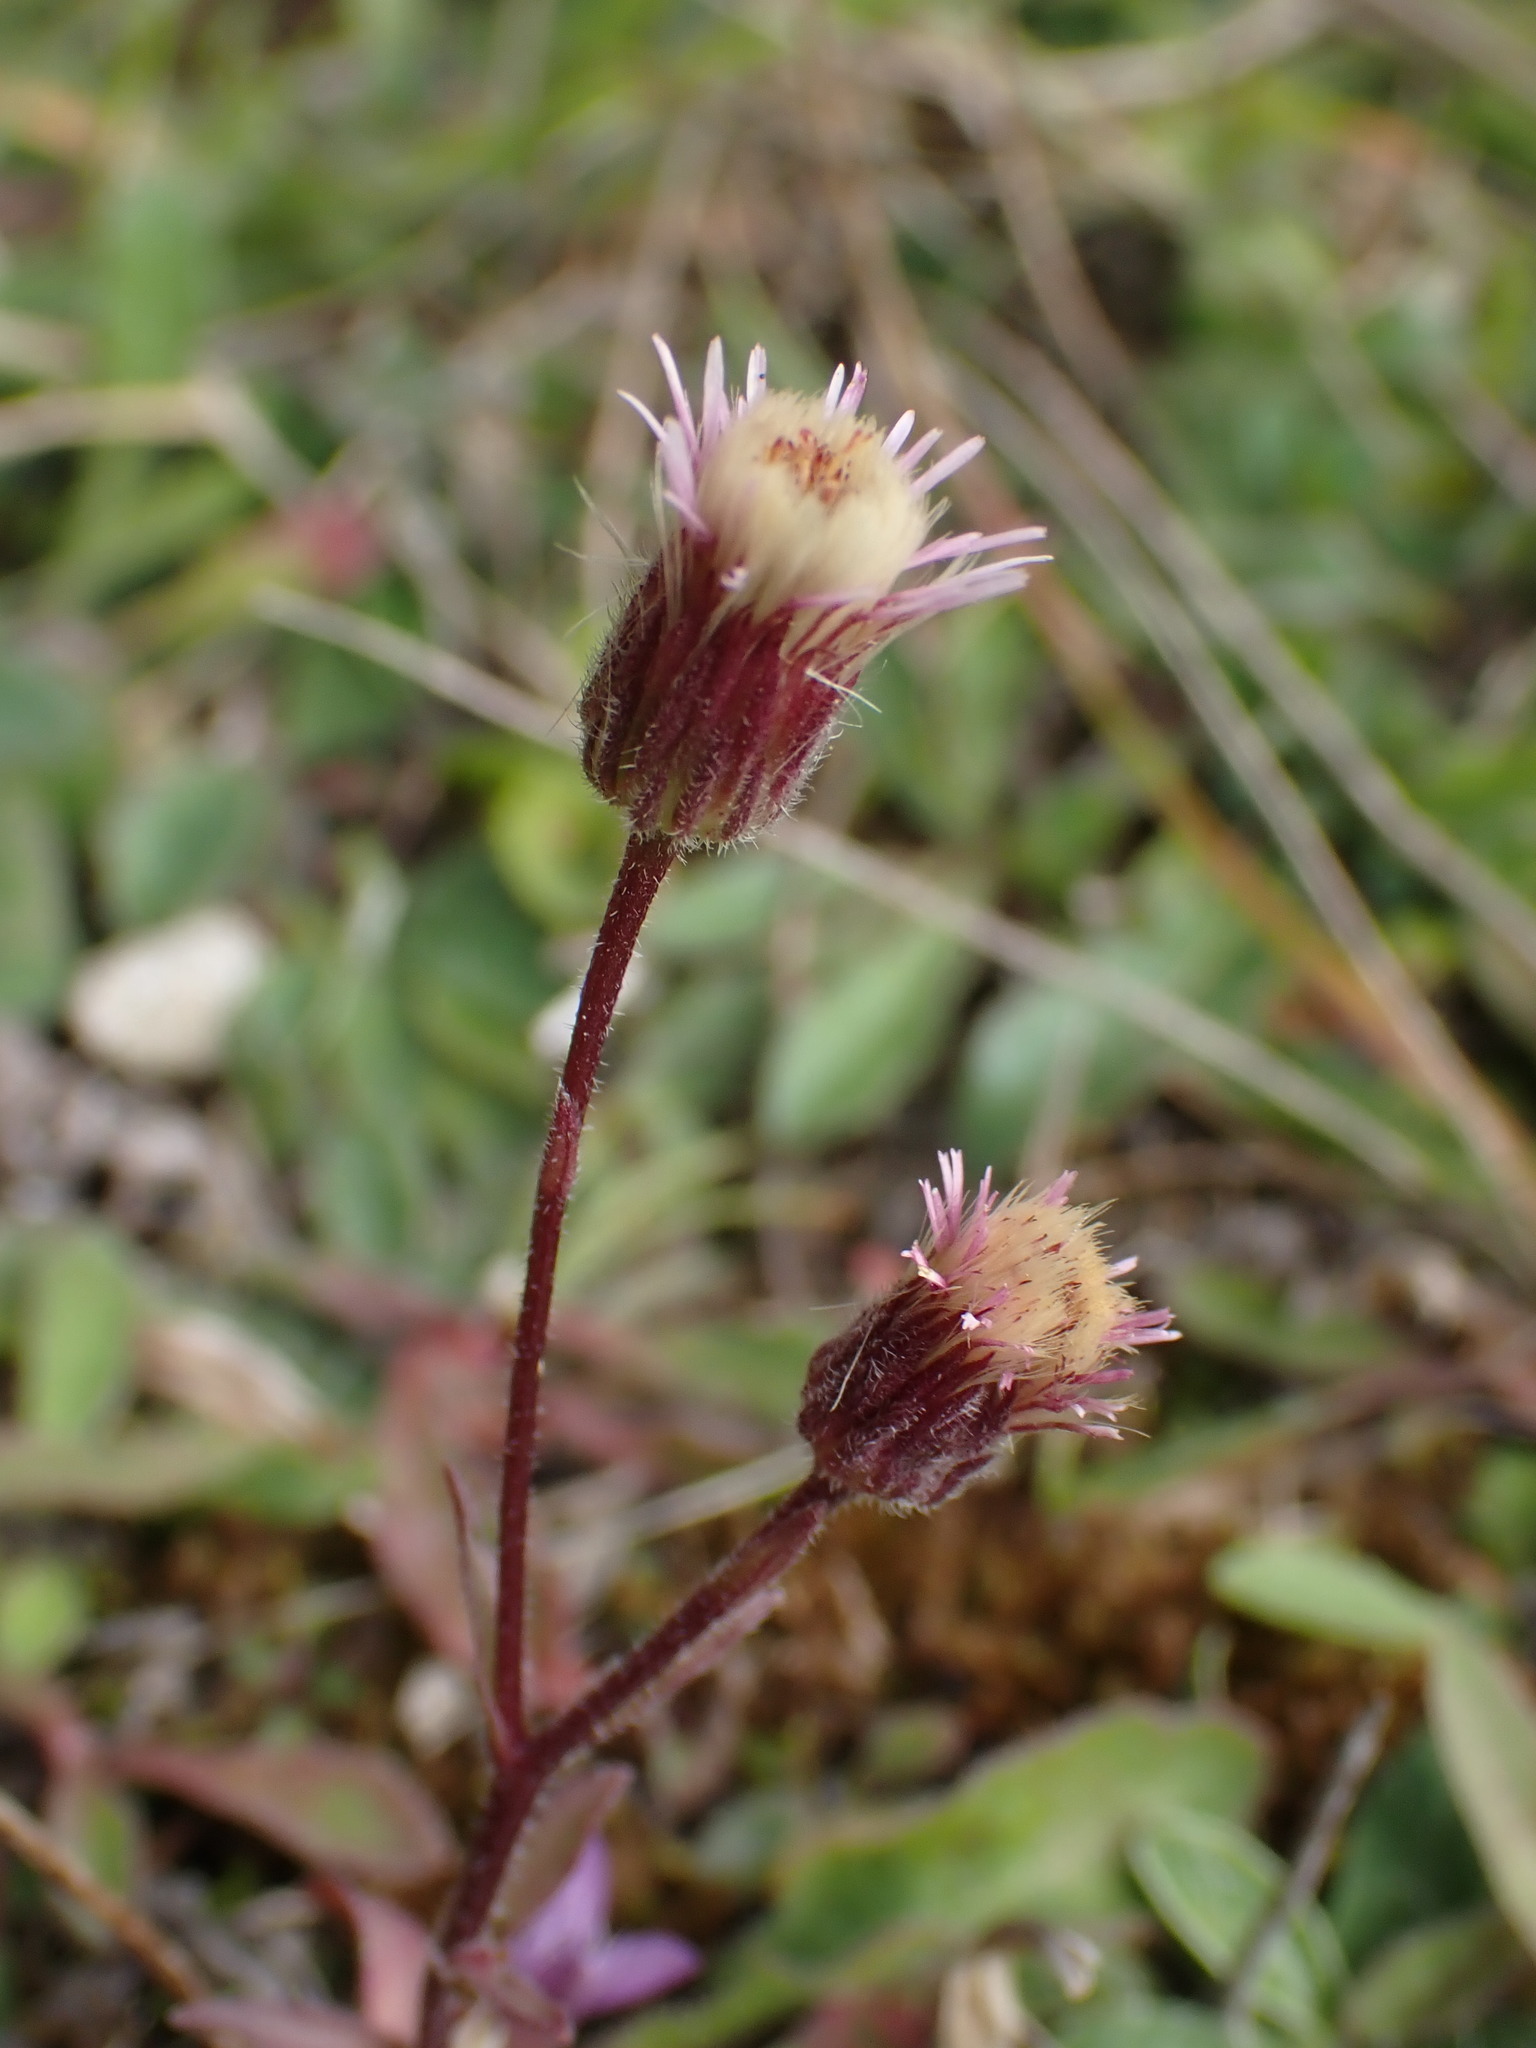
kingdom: Plantae
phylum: Tracheophyta
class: Magnoliopsida
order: Asterales
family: Asteraceae
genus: Erigeron
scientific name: Erigeron acris
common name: Blue fleabane
